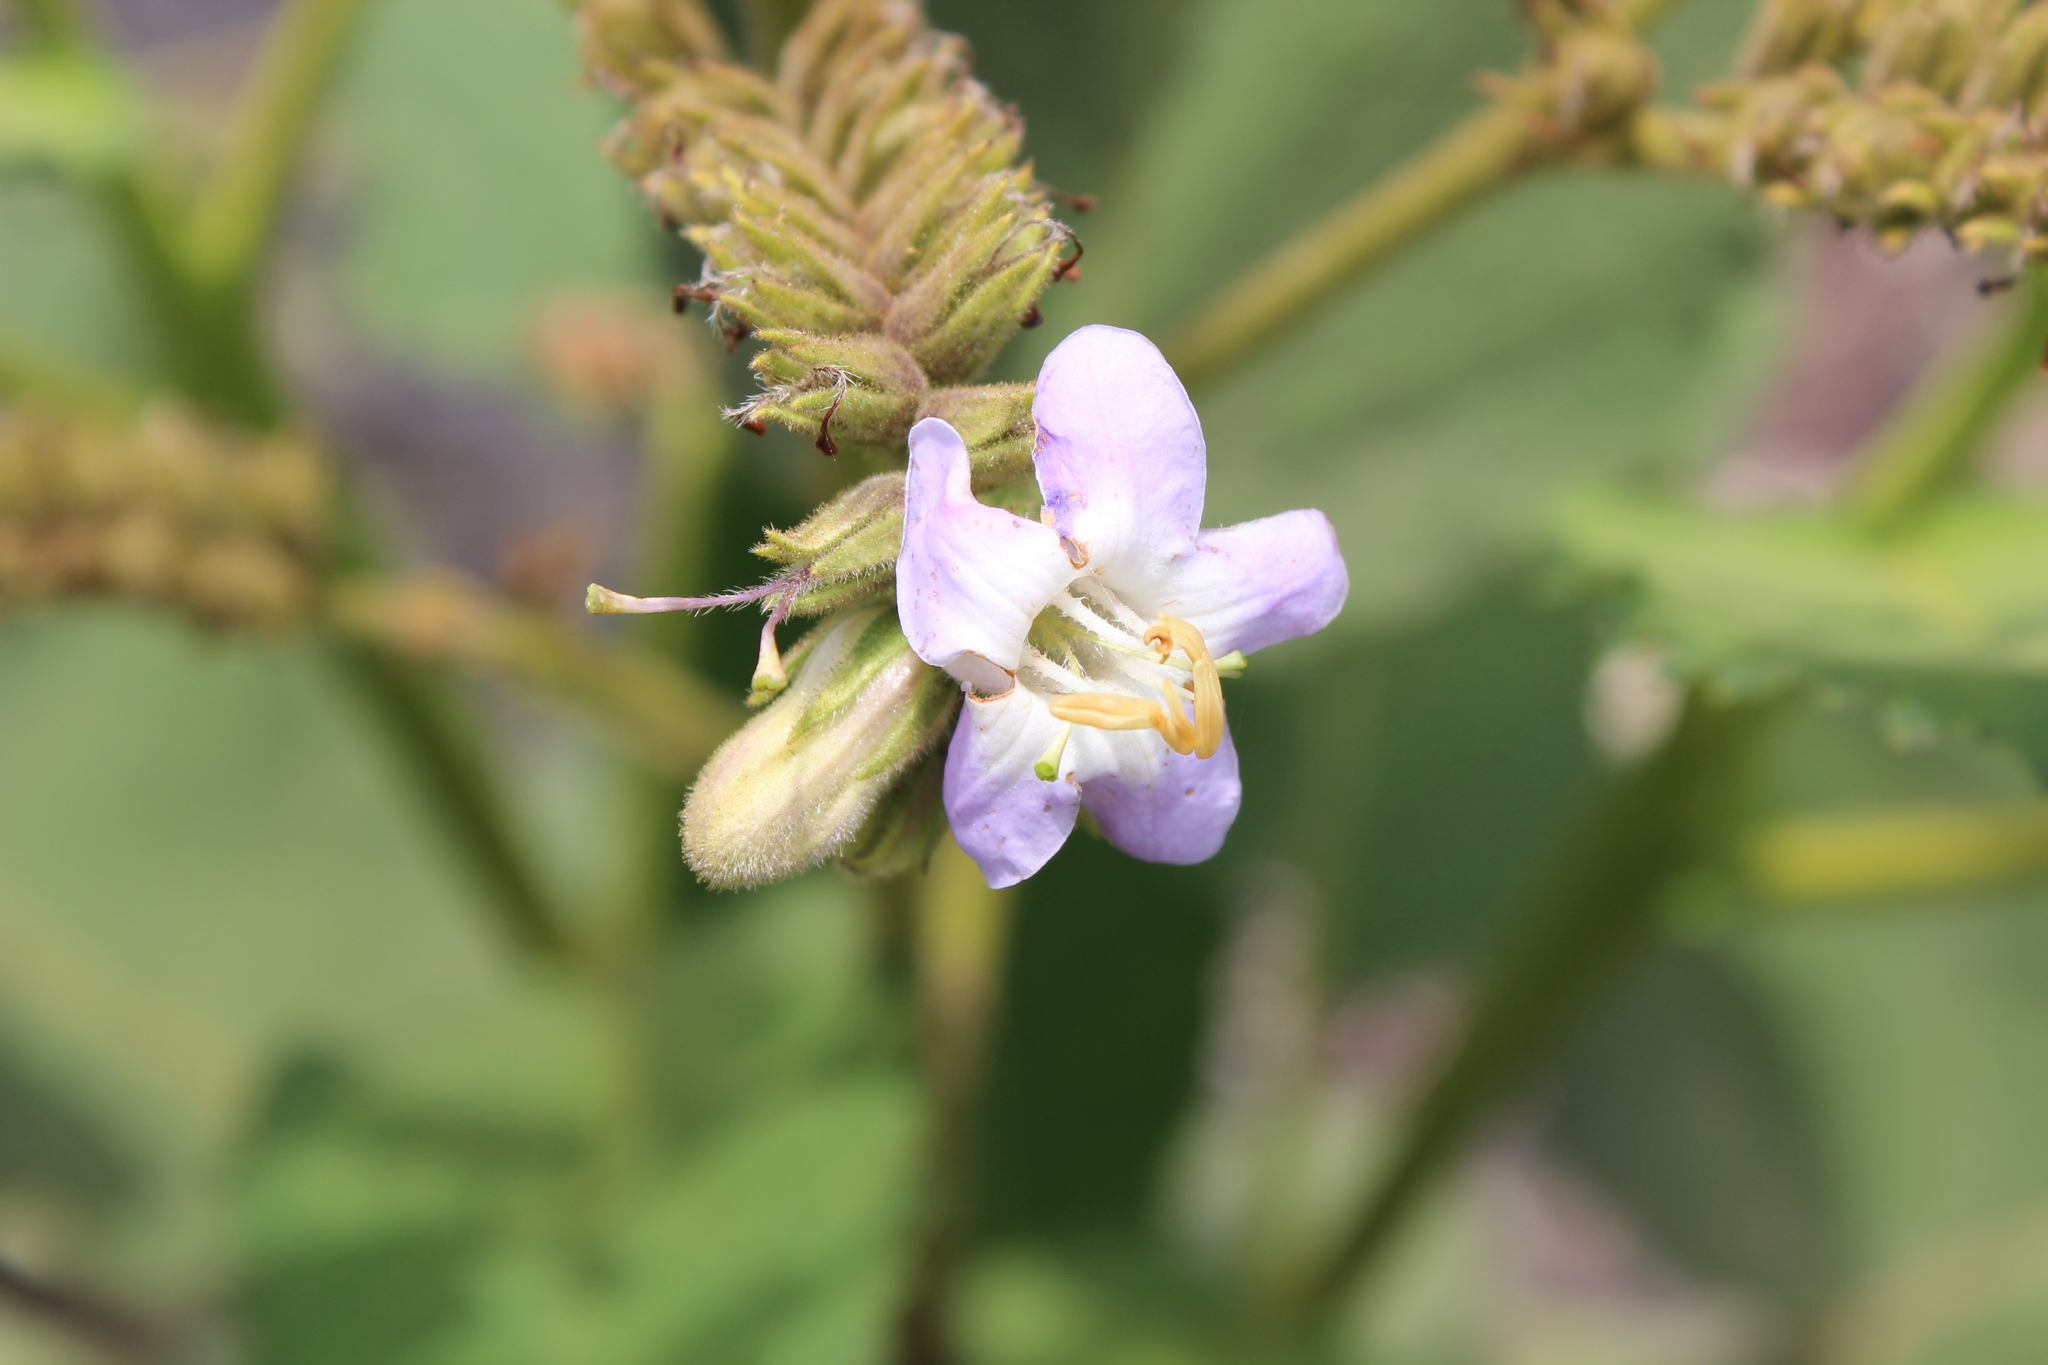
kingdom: Plantae
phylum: Tracheophyta
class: Magnoliopsida
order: Boraginales
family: Namaceae
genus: Wigandia
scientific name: Wigandia urens
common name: Caracus wigandia
